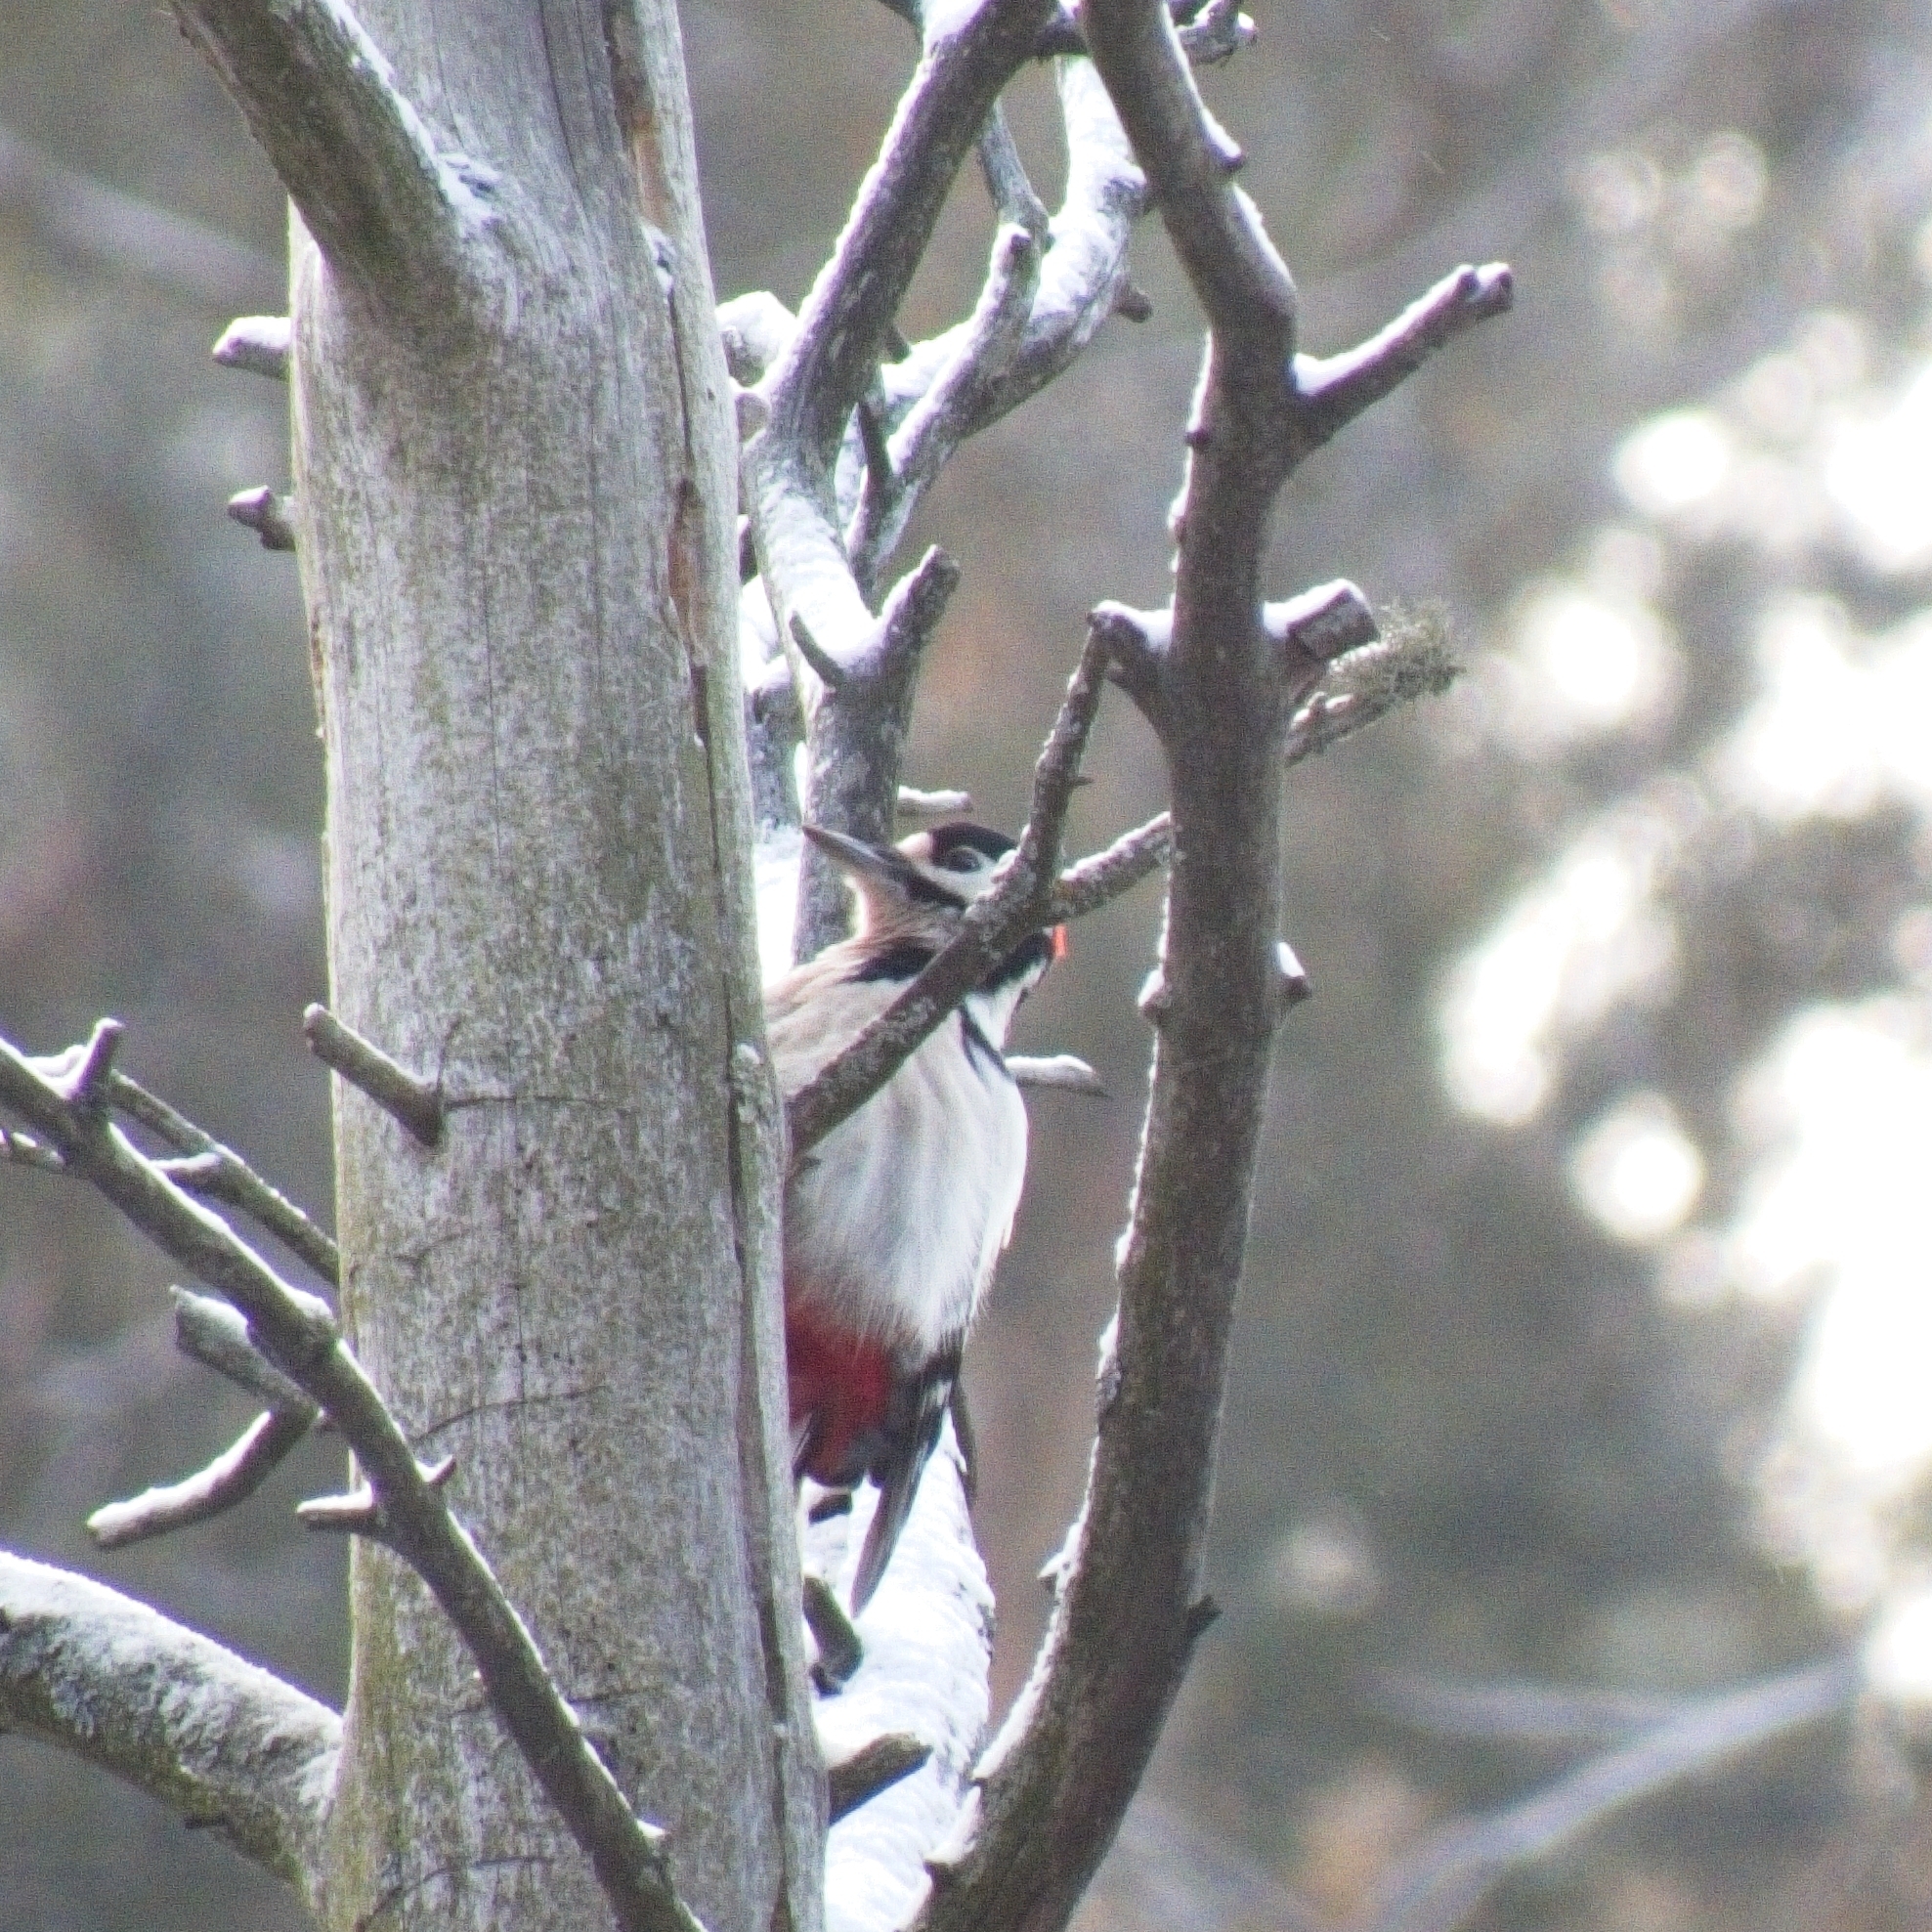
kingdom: Animalia
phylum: Chordata
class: Aves
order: Piciformes
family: Picidae
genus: Dendrocopos
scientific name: Dendrocopos major
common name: Great spotted woodpecker
